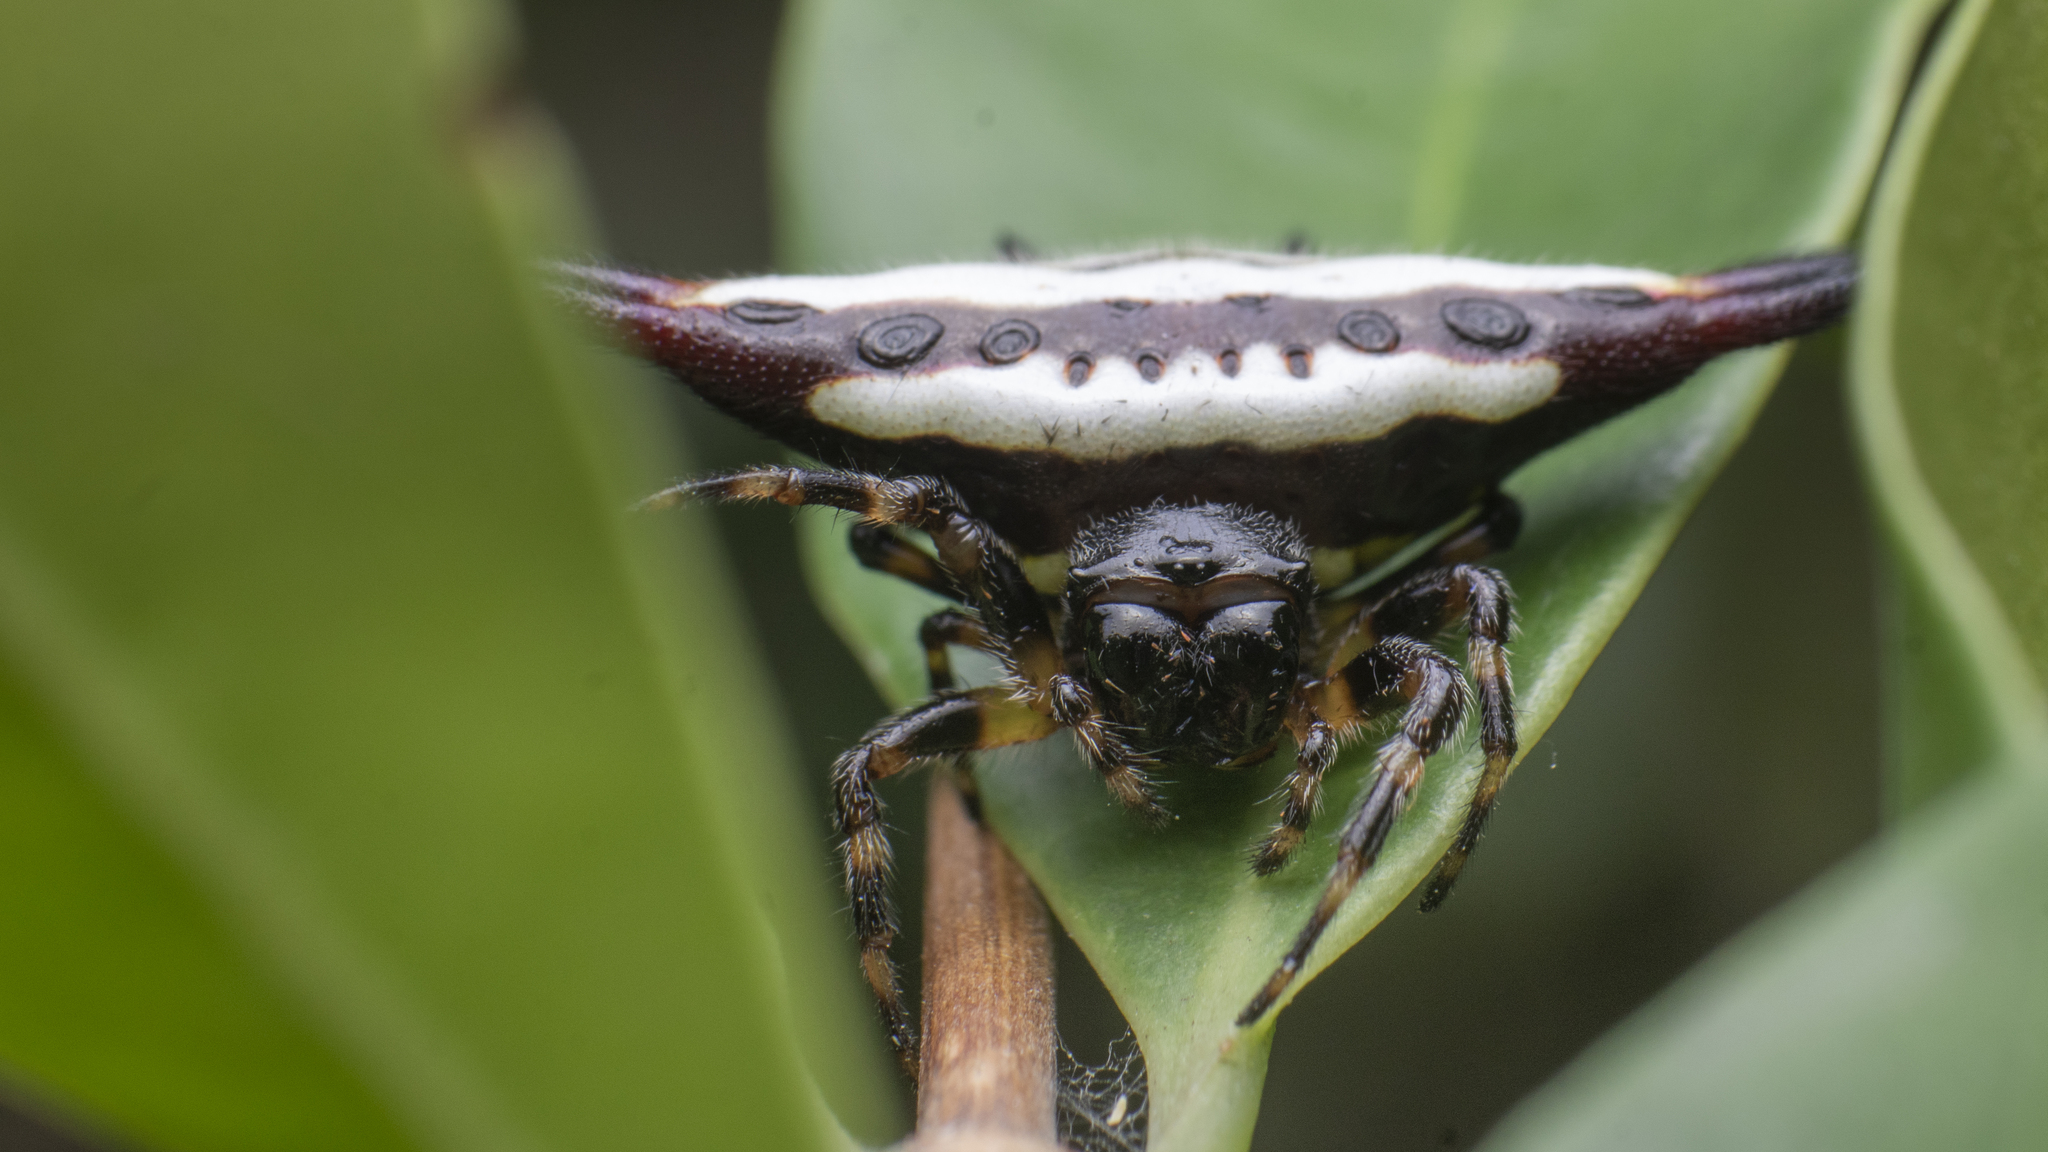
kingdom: Animalia
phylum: Arthropoda
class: Arachnida
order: Araneae
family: Araneidae
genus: Gasteracantha
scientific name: Gasteracantha geminata
